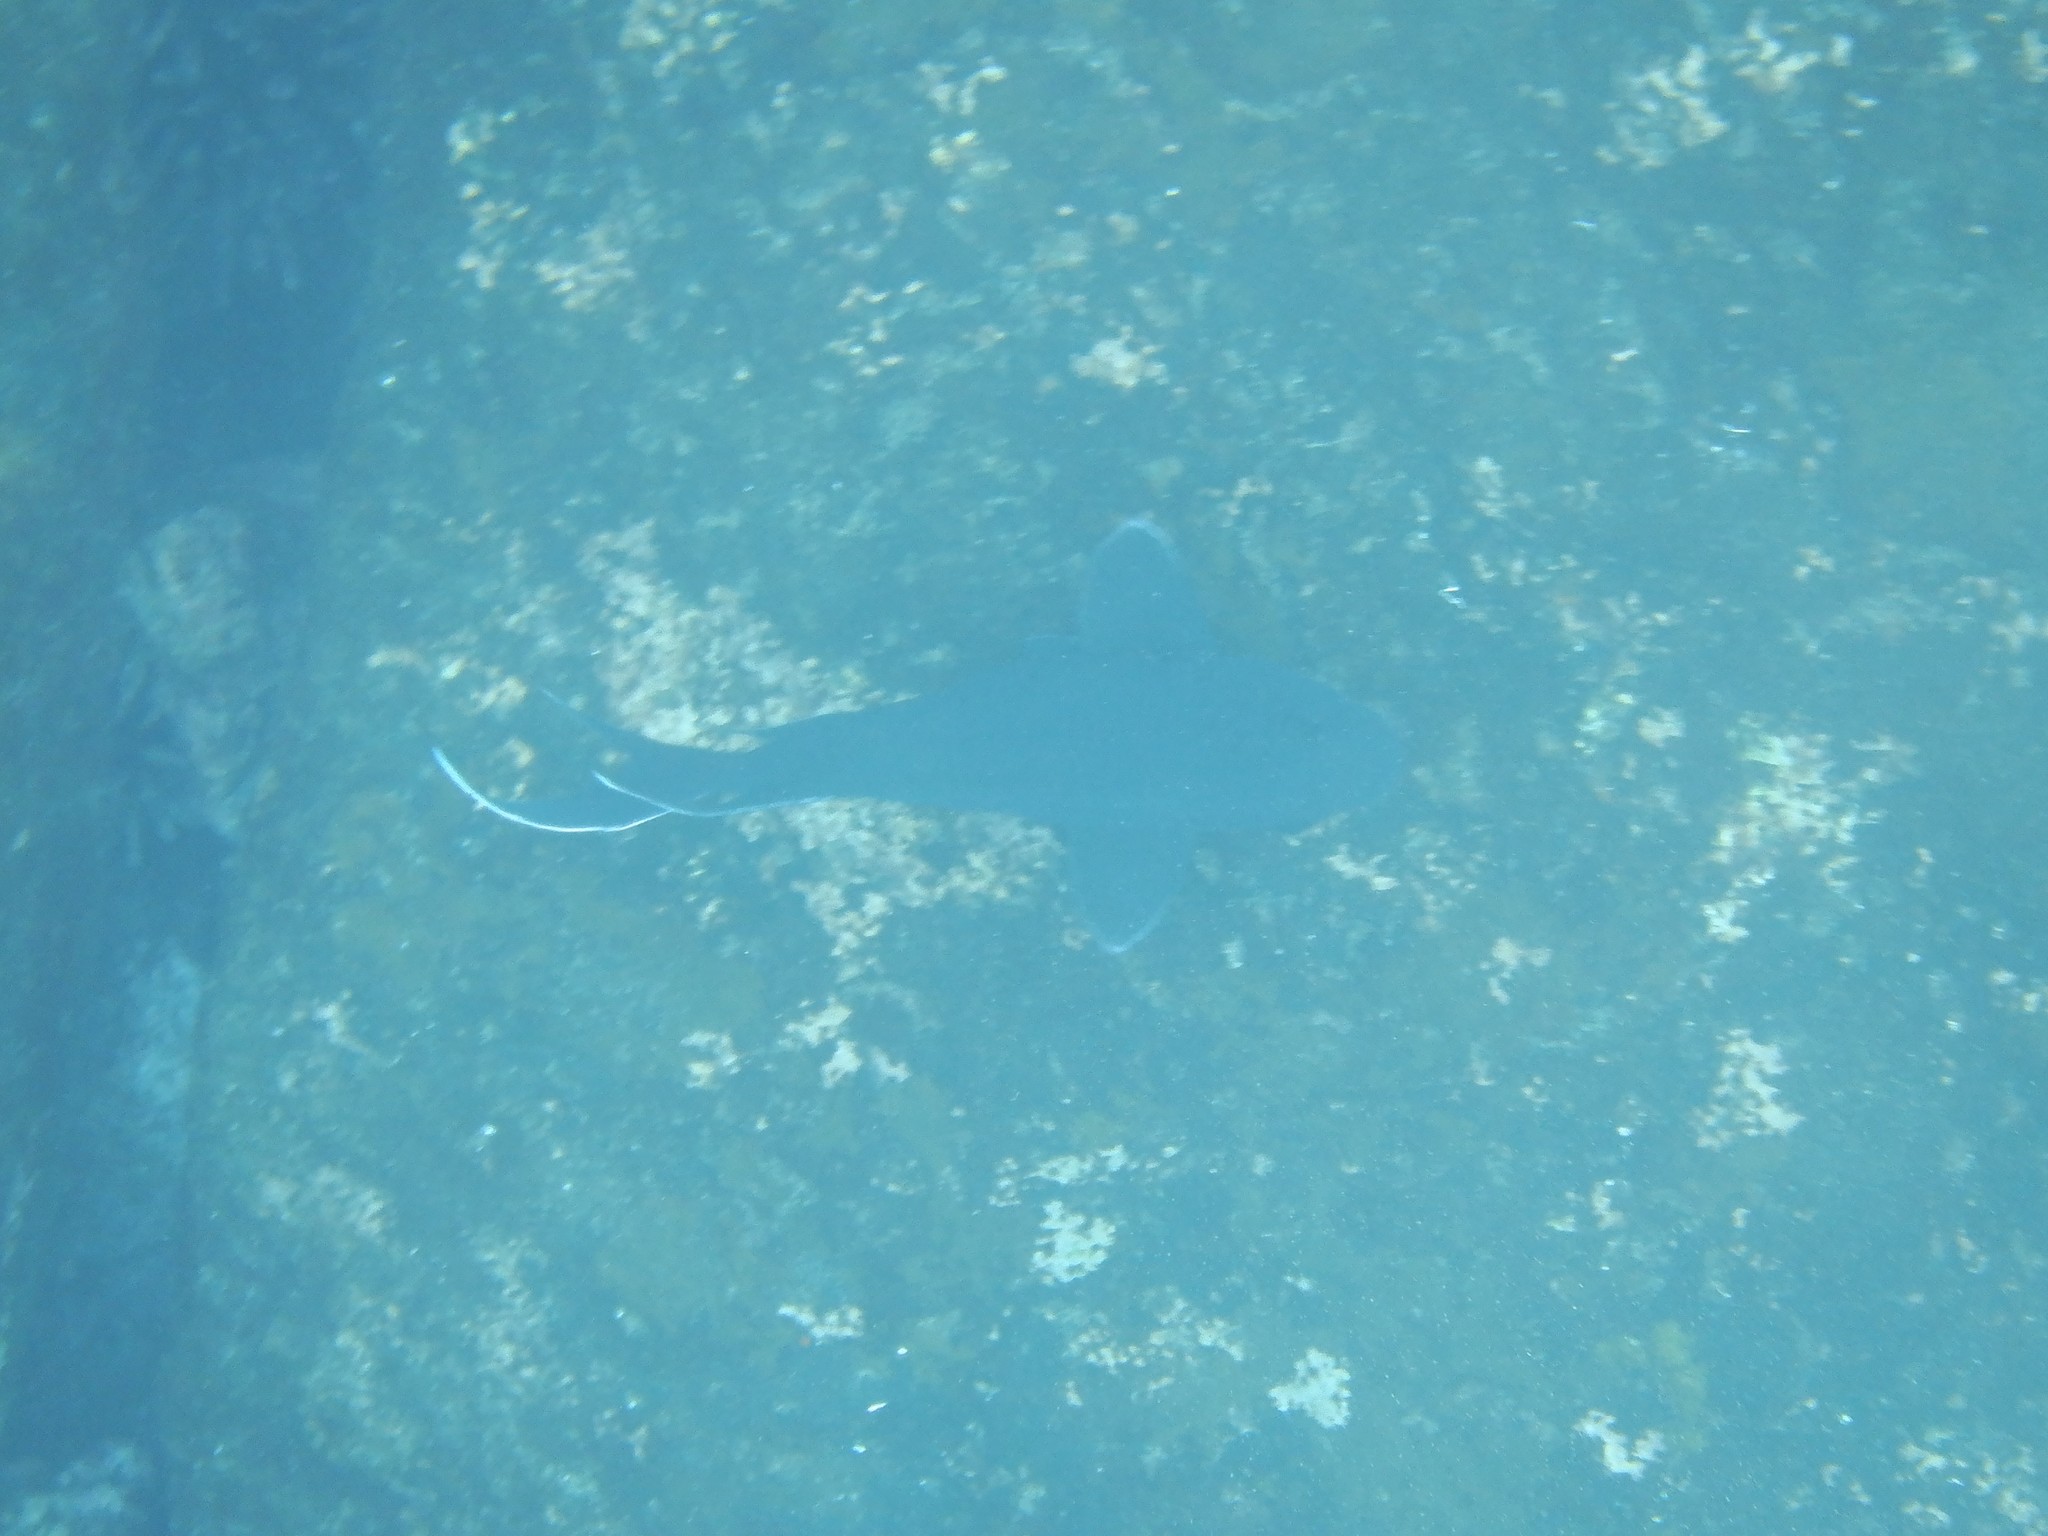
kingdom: Animalia
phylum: Chordata
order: Perciformes
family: Pomacentridae
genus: Microspathodon
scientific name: Microspathodon dorsalis
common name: Giant damselfish
